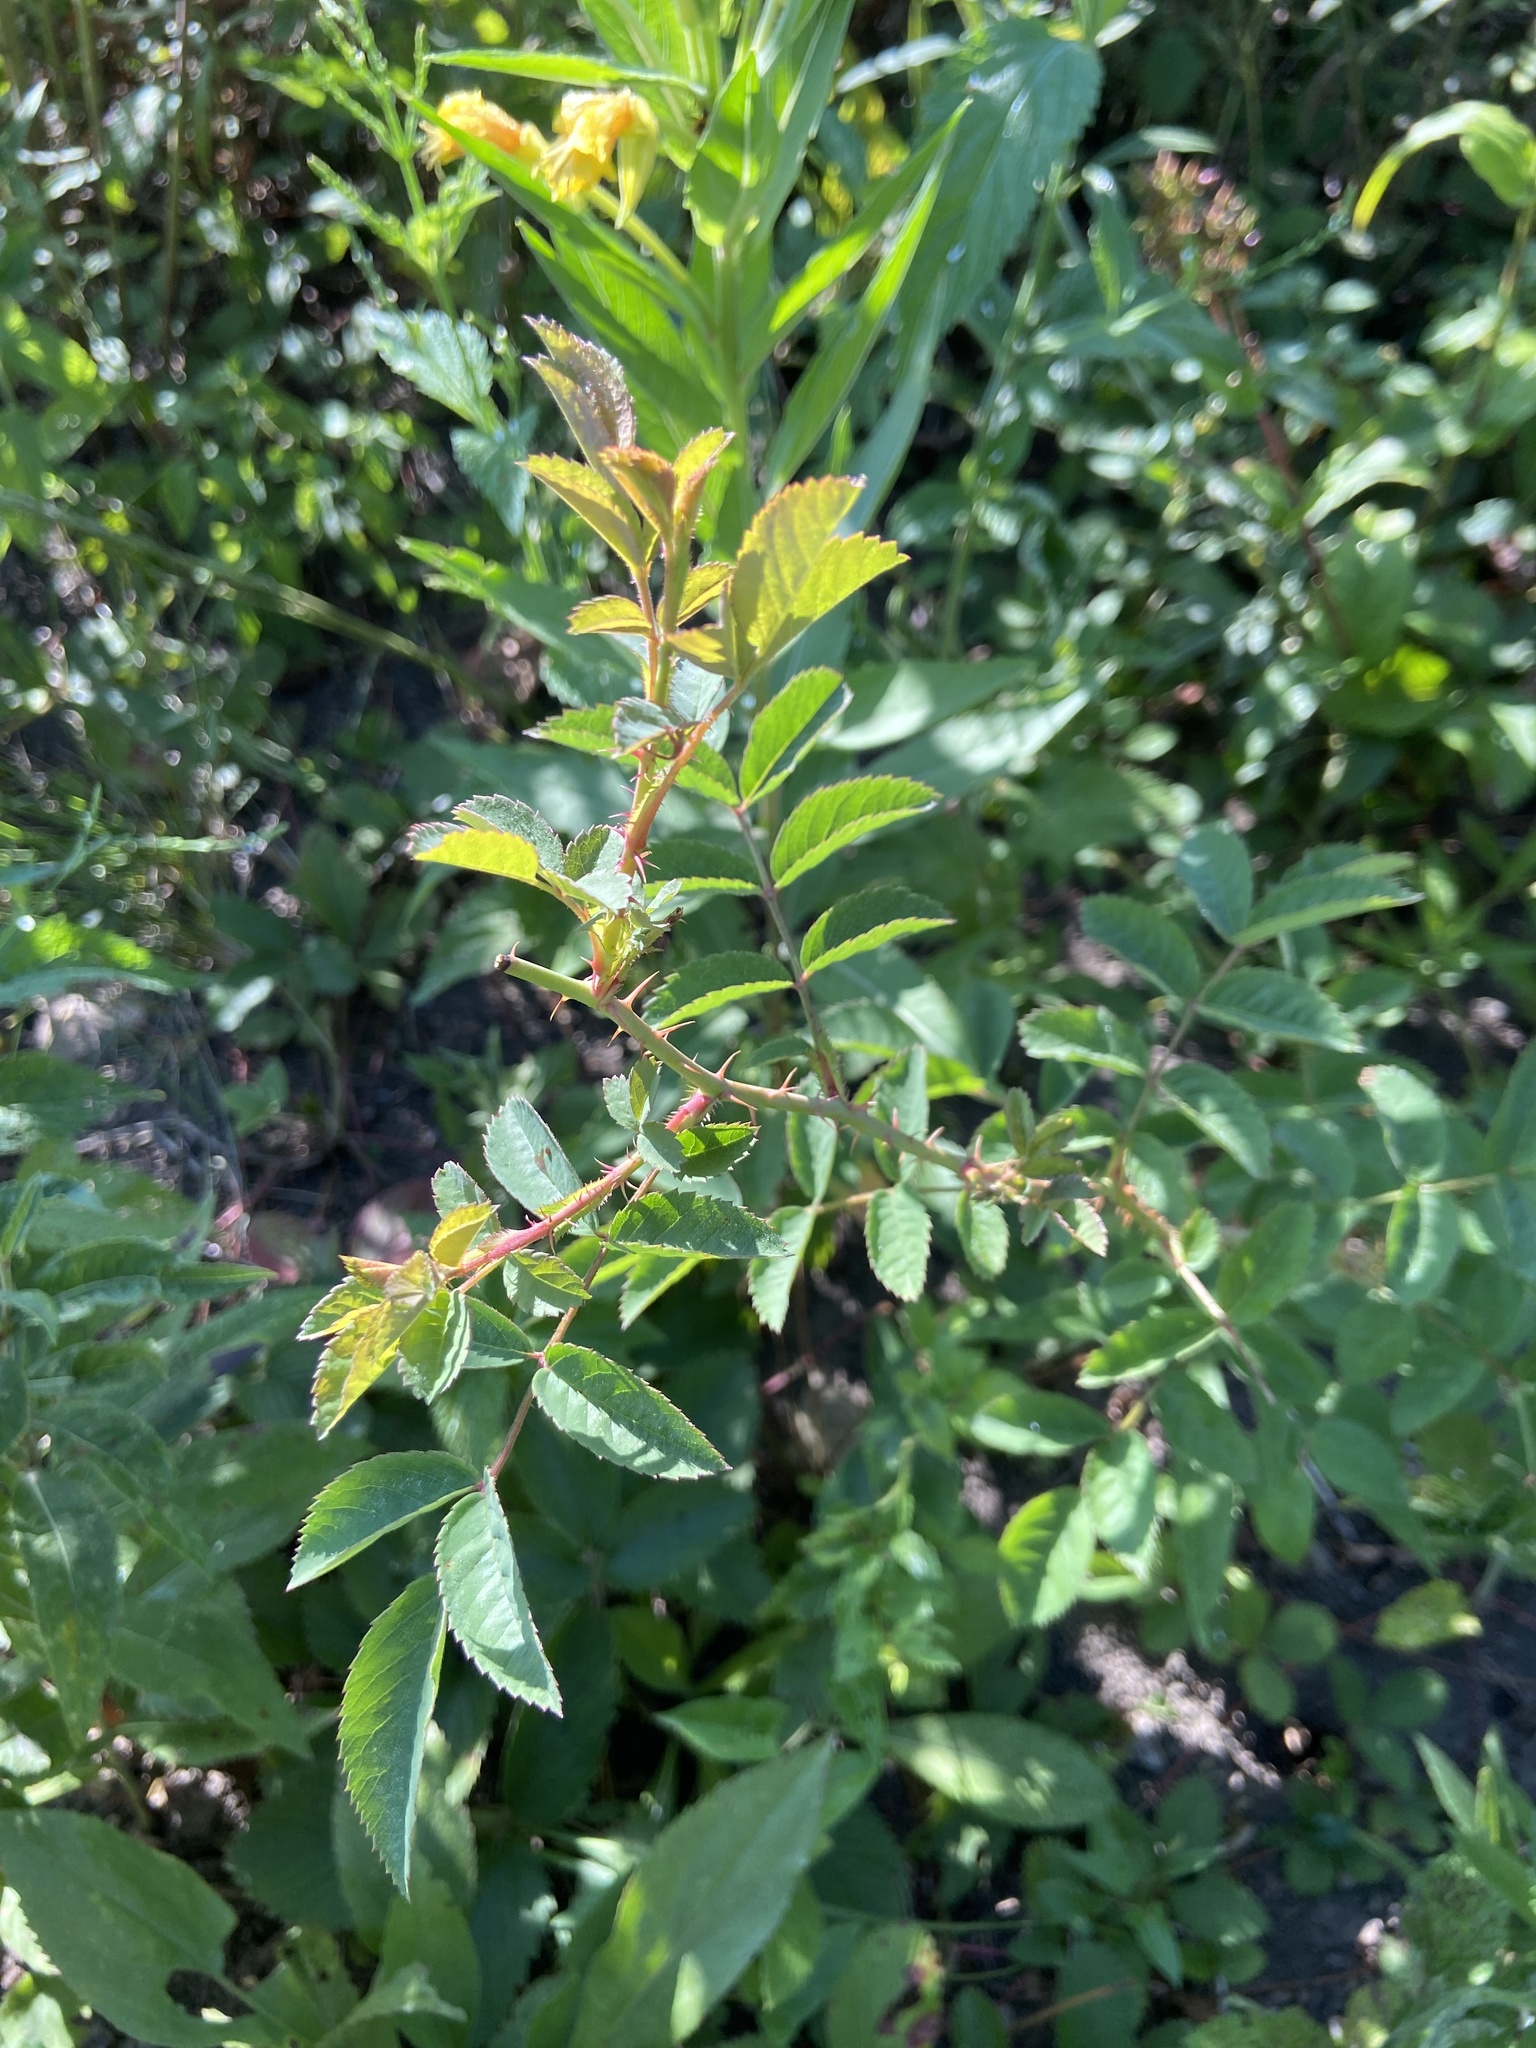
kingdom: Plantae
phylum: Tracheophyta
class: Magnoliopsida
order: Rosales
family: Rosaceae
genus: Rosa
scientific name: Rosa multiflora
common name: Multiflora rose
